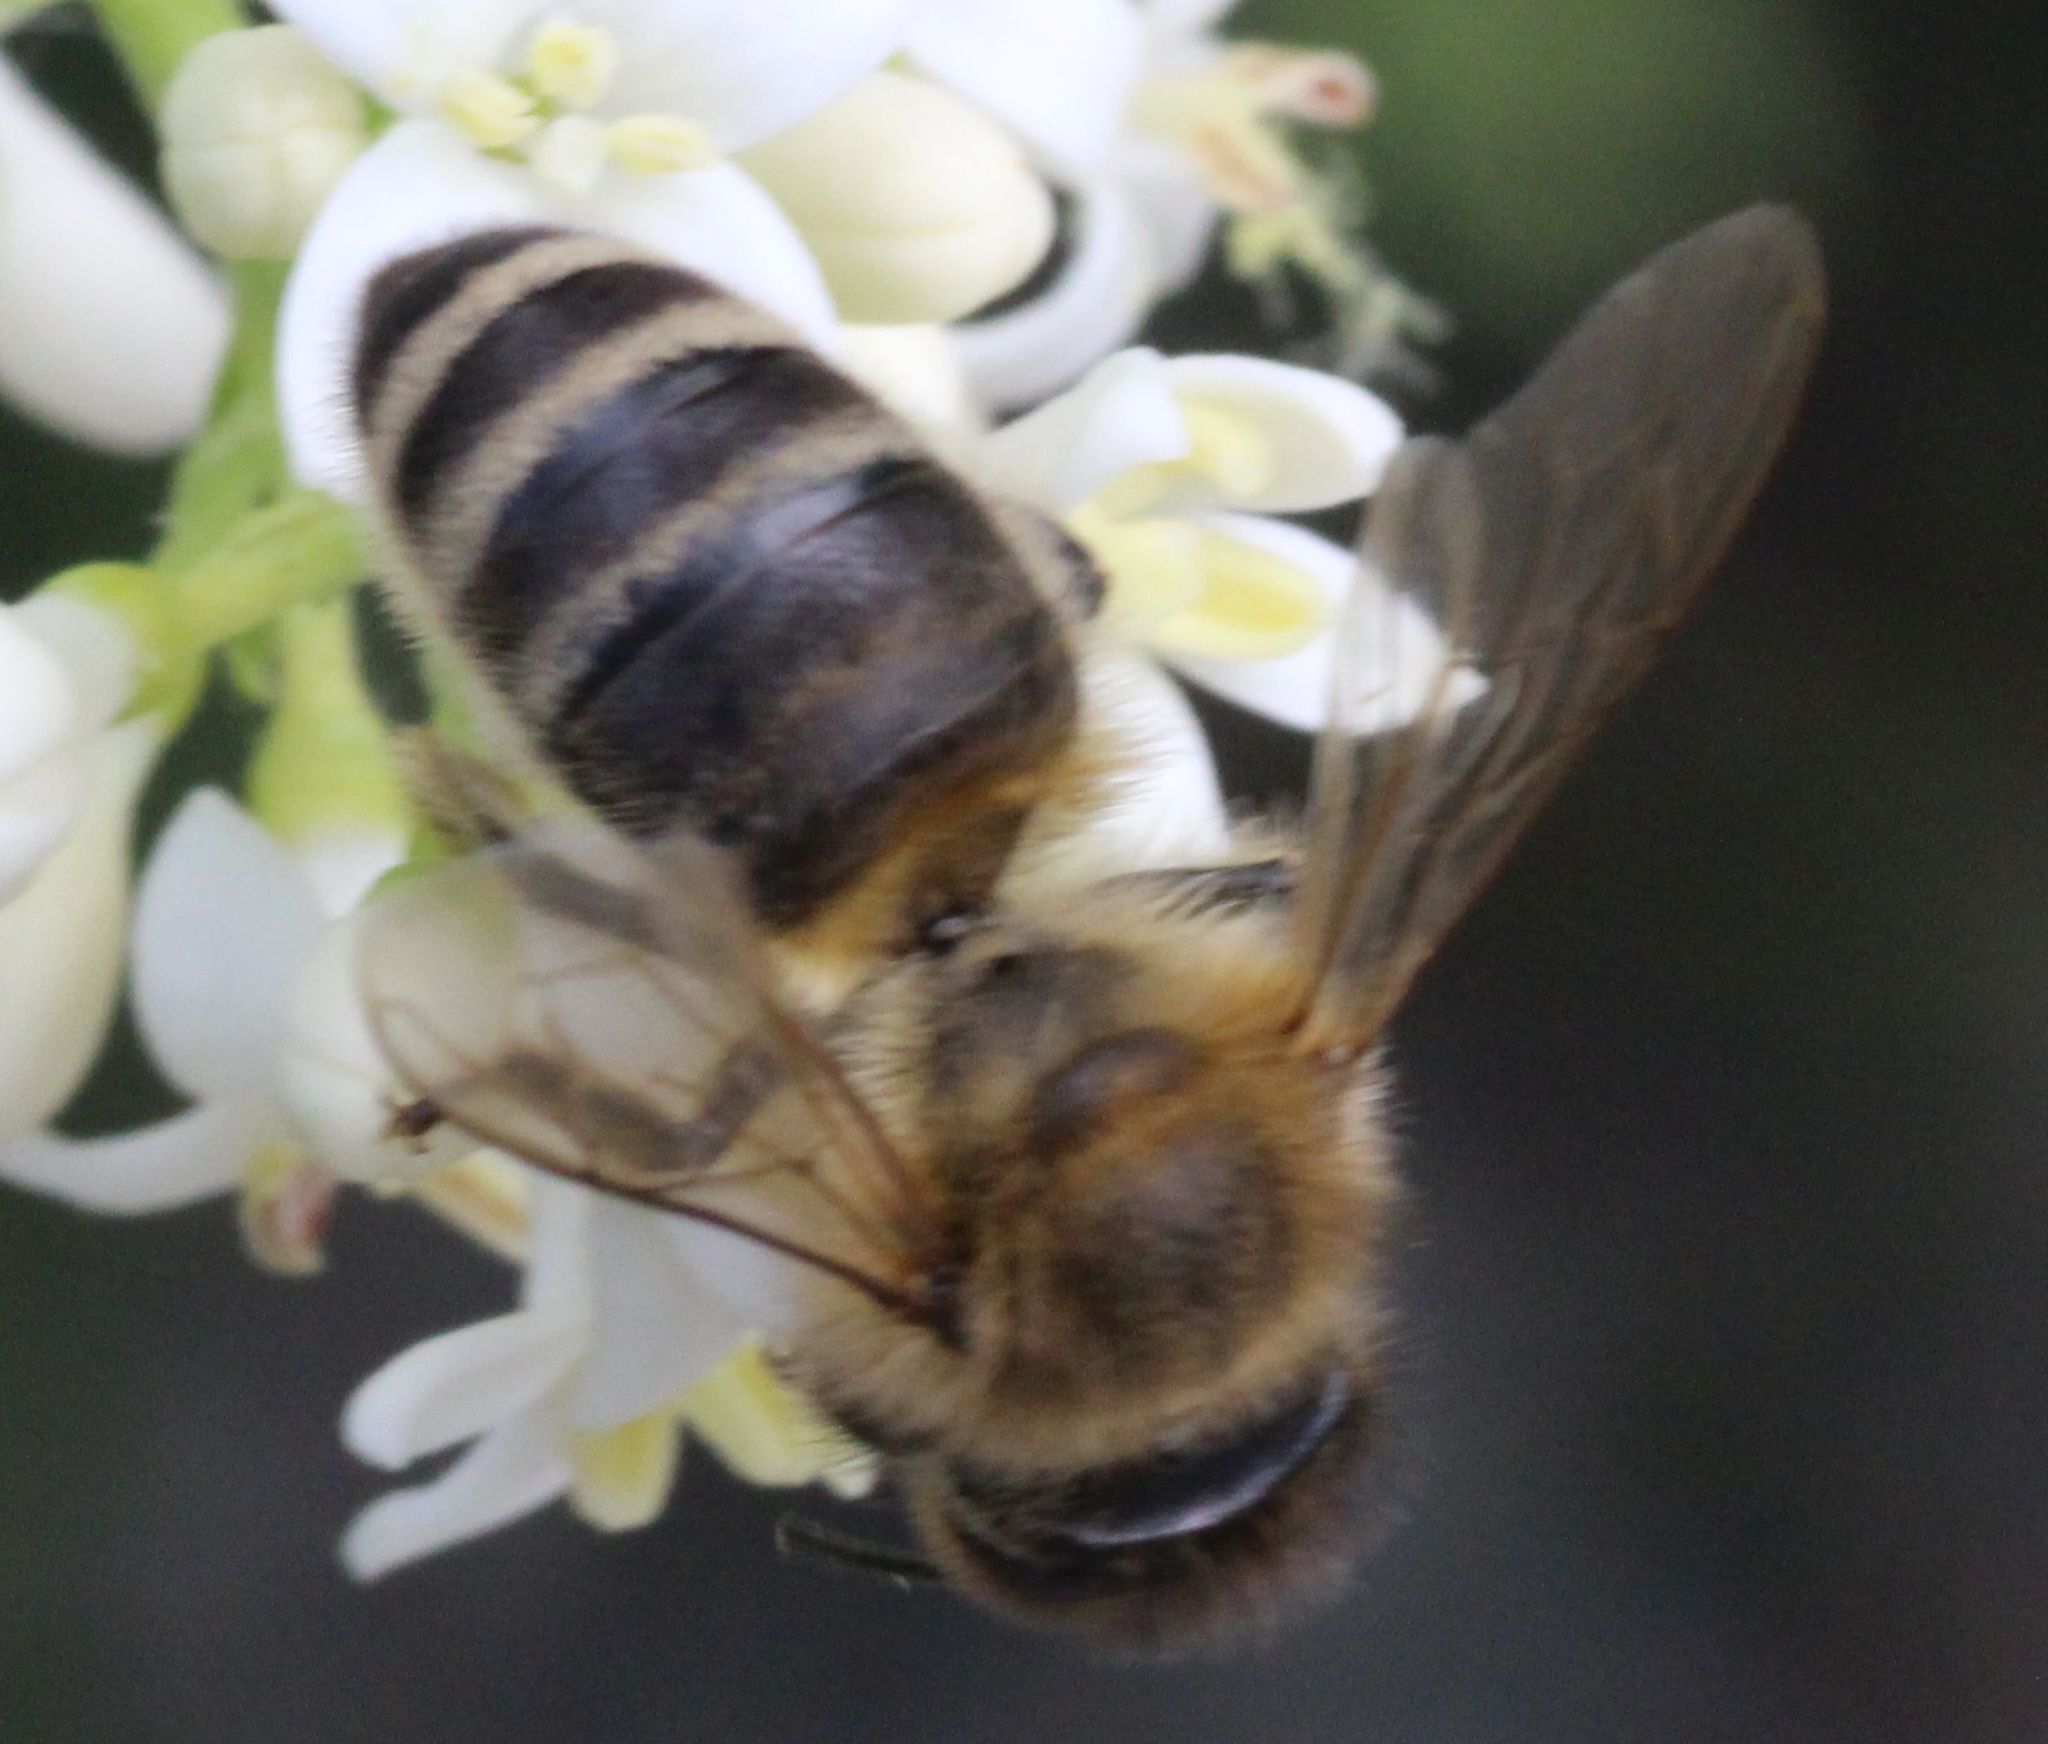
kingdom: Animalia
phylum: Arthropoda
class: Insecta
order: Hymenoptera
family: Apidae
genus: Apis
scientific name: Apis mellifera
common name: Honey bee
